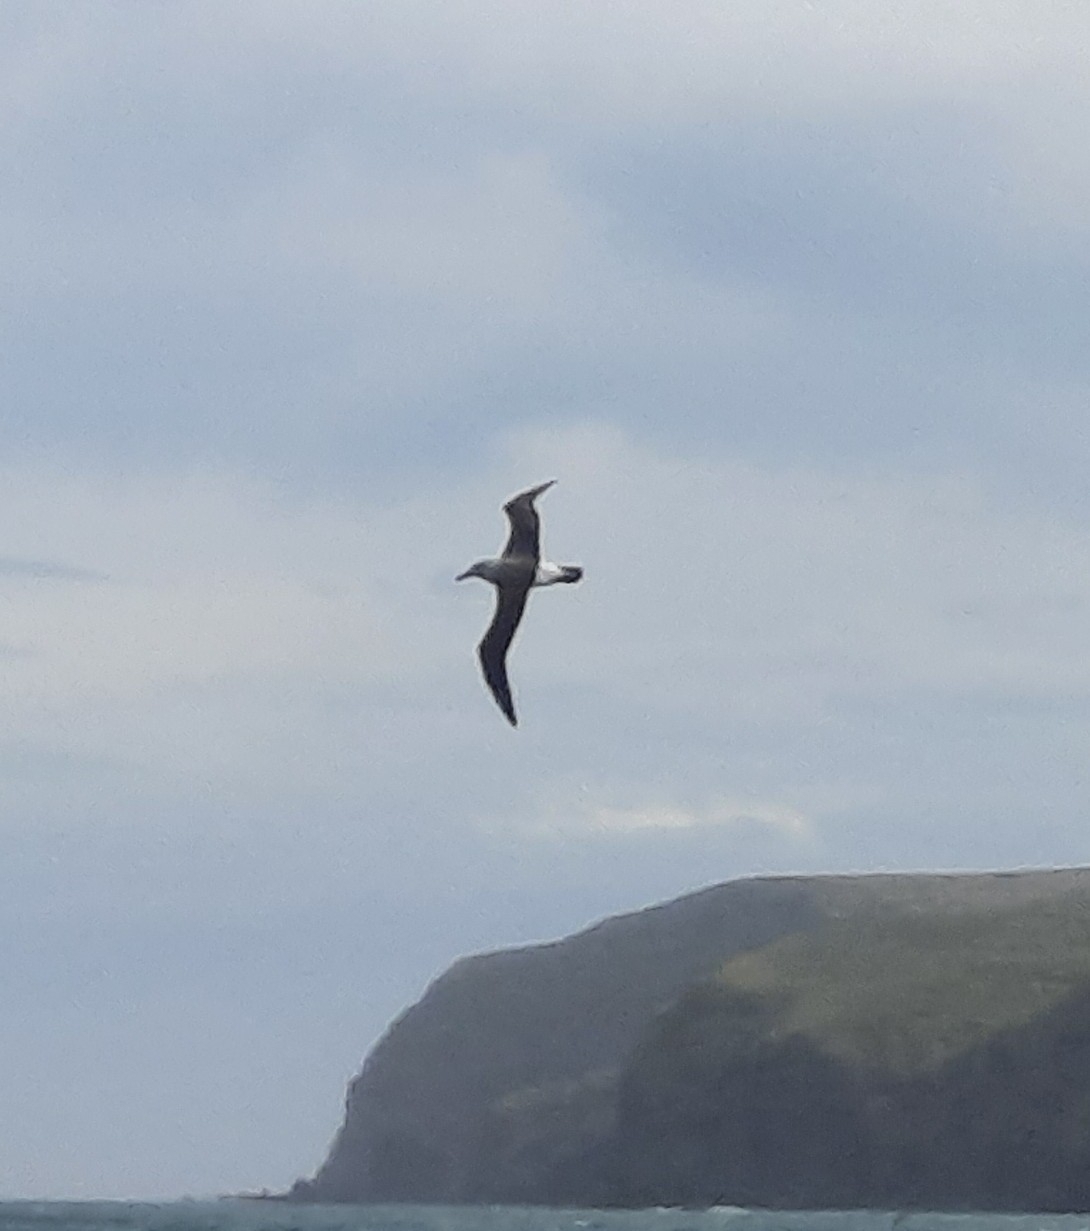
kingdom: Animalia
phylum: Chordata
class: Aves
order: Procellariiformes
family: Diomedeidae
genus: Thalassarche
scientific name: Thalassarche bulleri
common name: Buller's albatross
